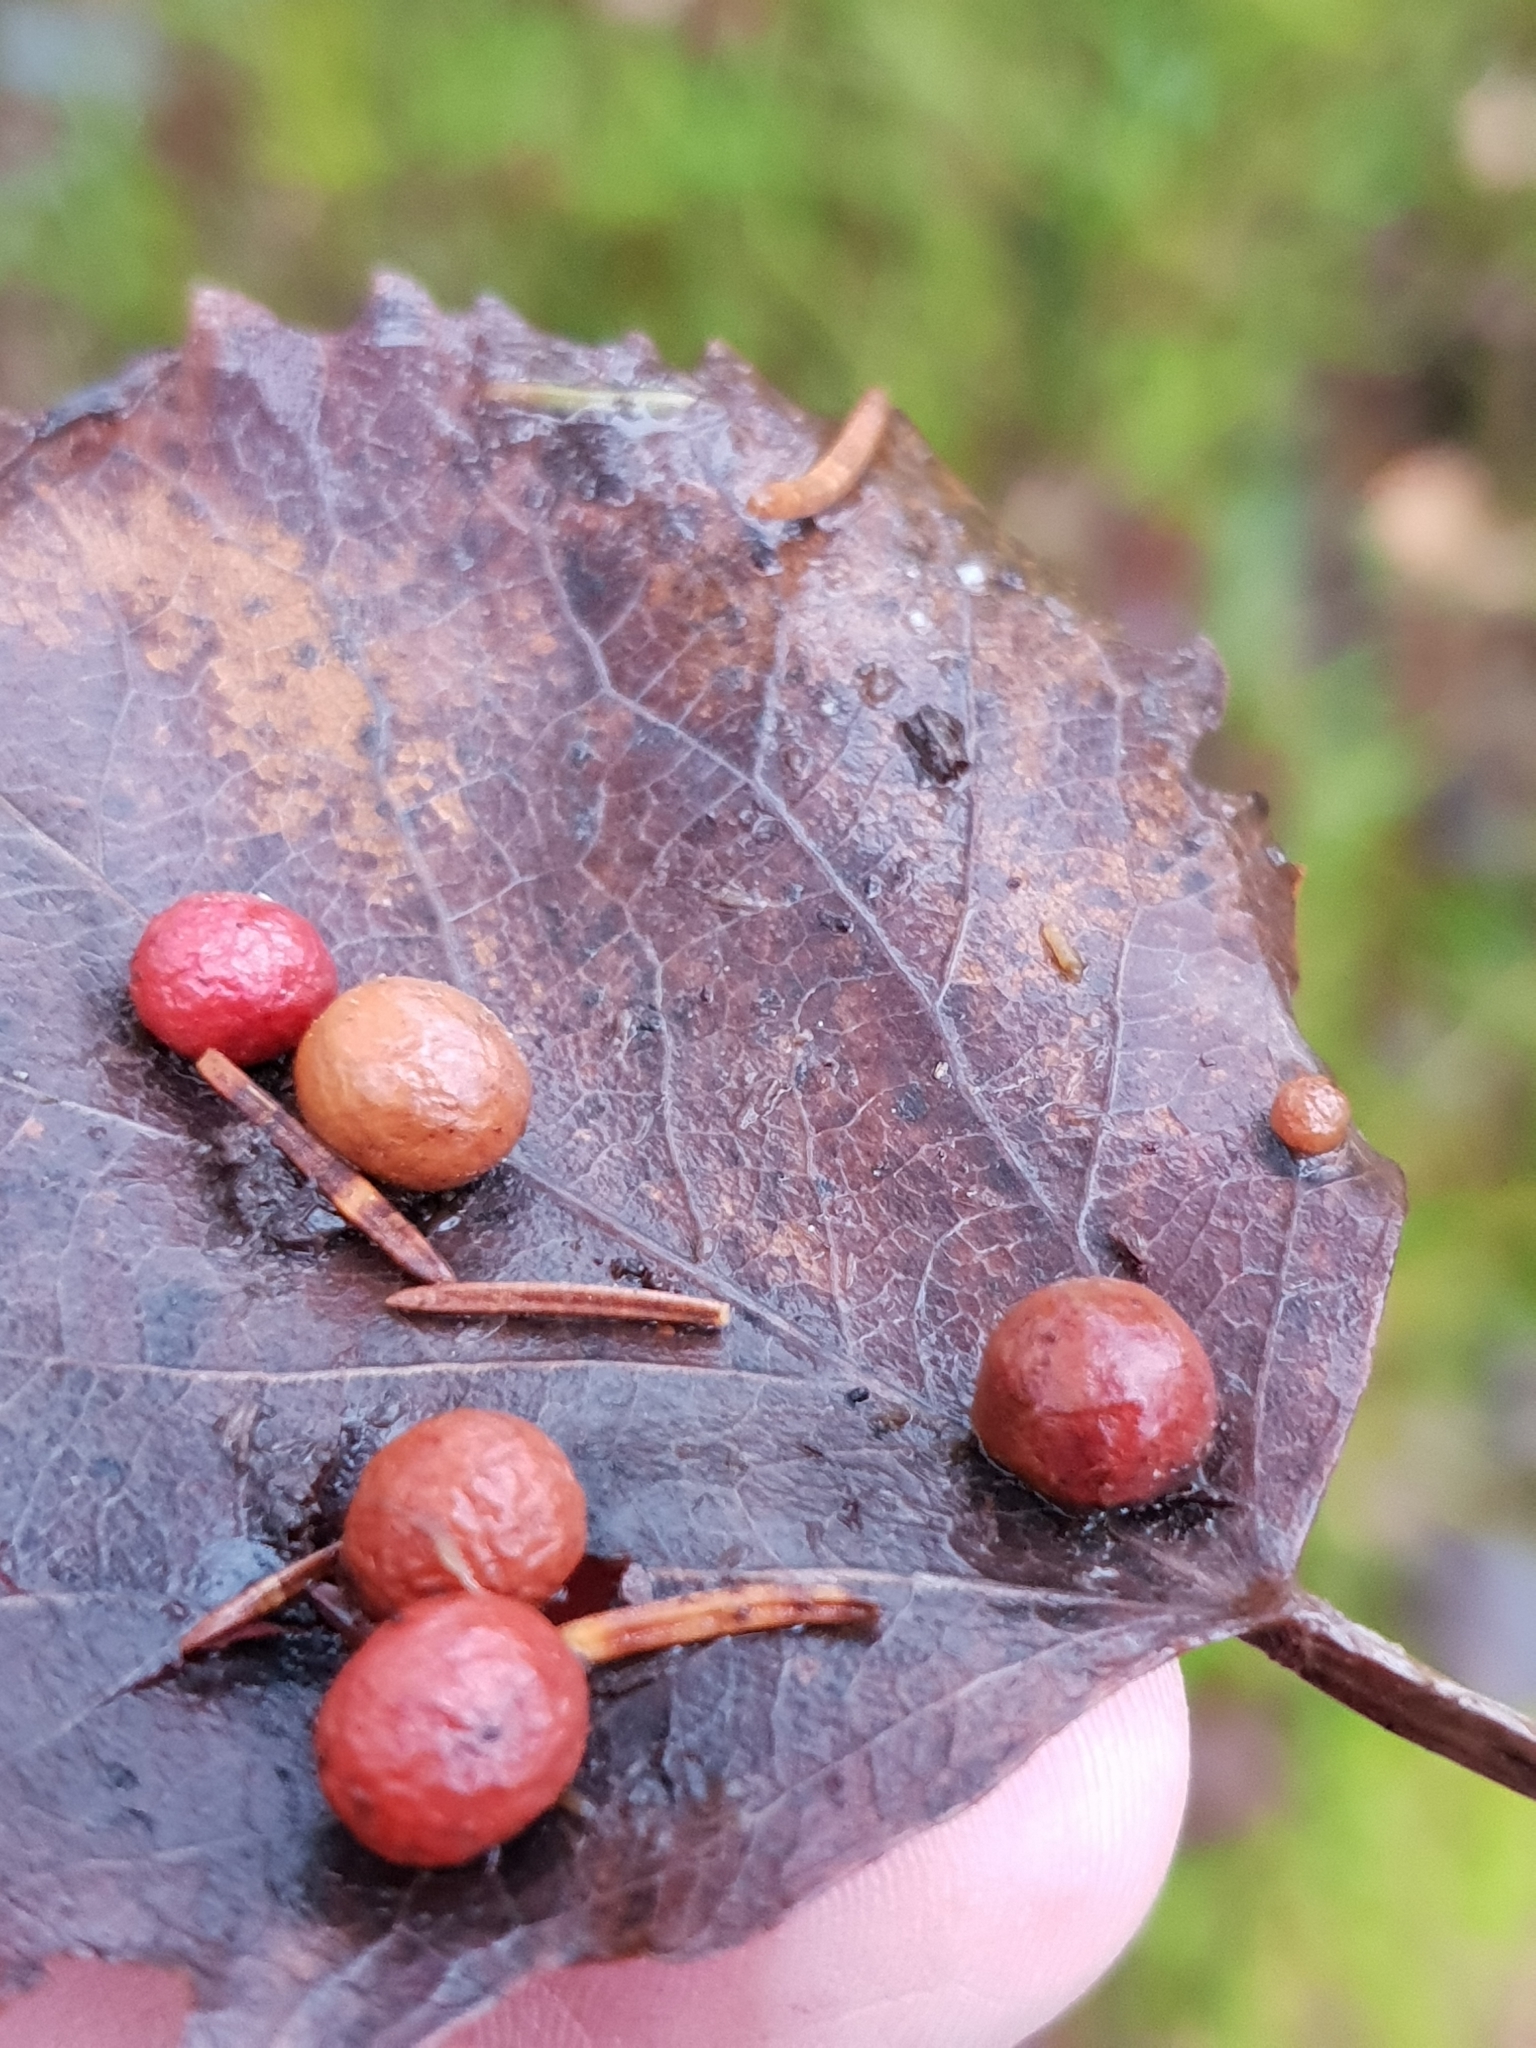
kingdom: Animalia
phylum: Arthropoda
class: Insecta
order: Diptera
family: Cecidomyiidae
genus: Harmandiola
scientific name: Harmandiola tremulae
